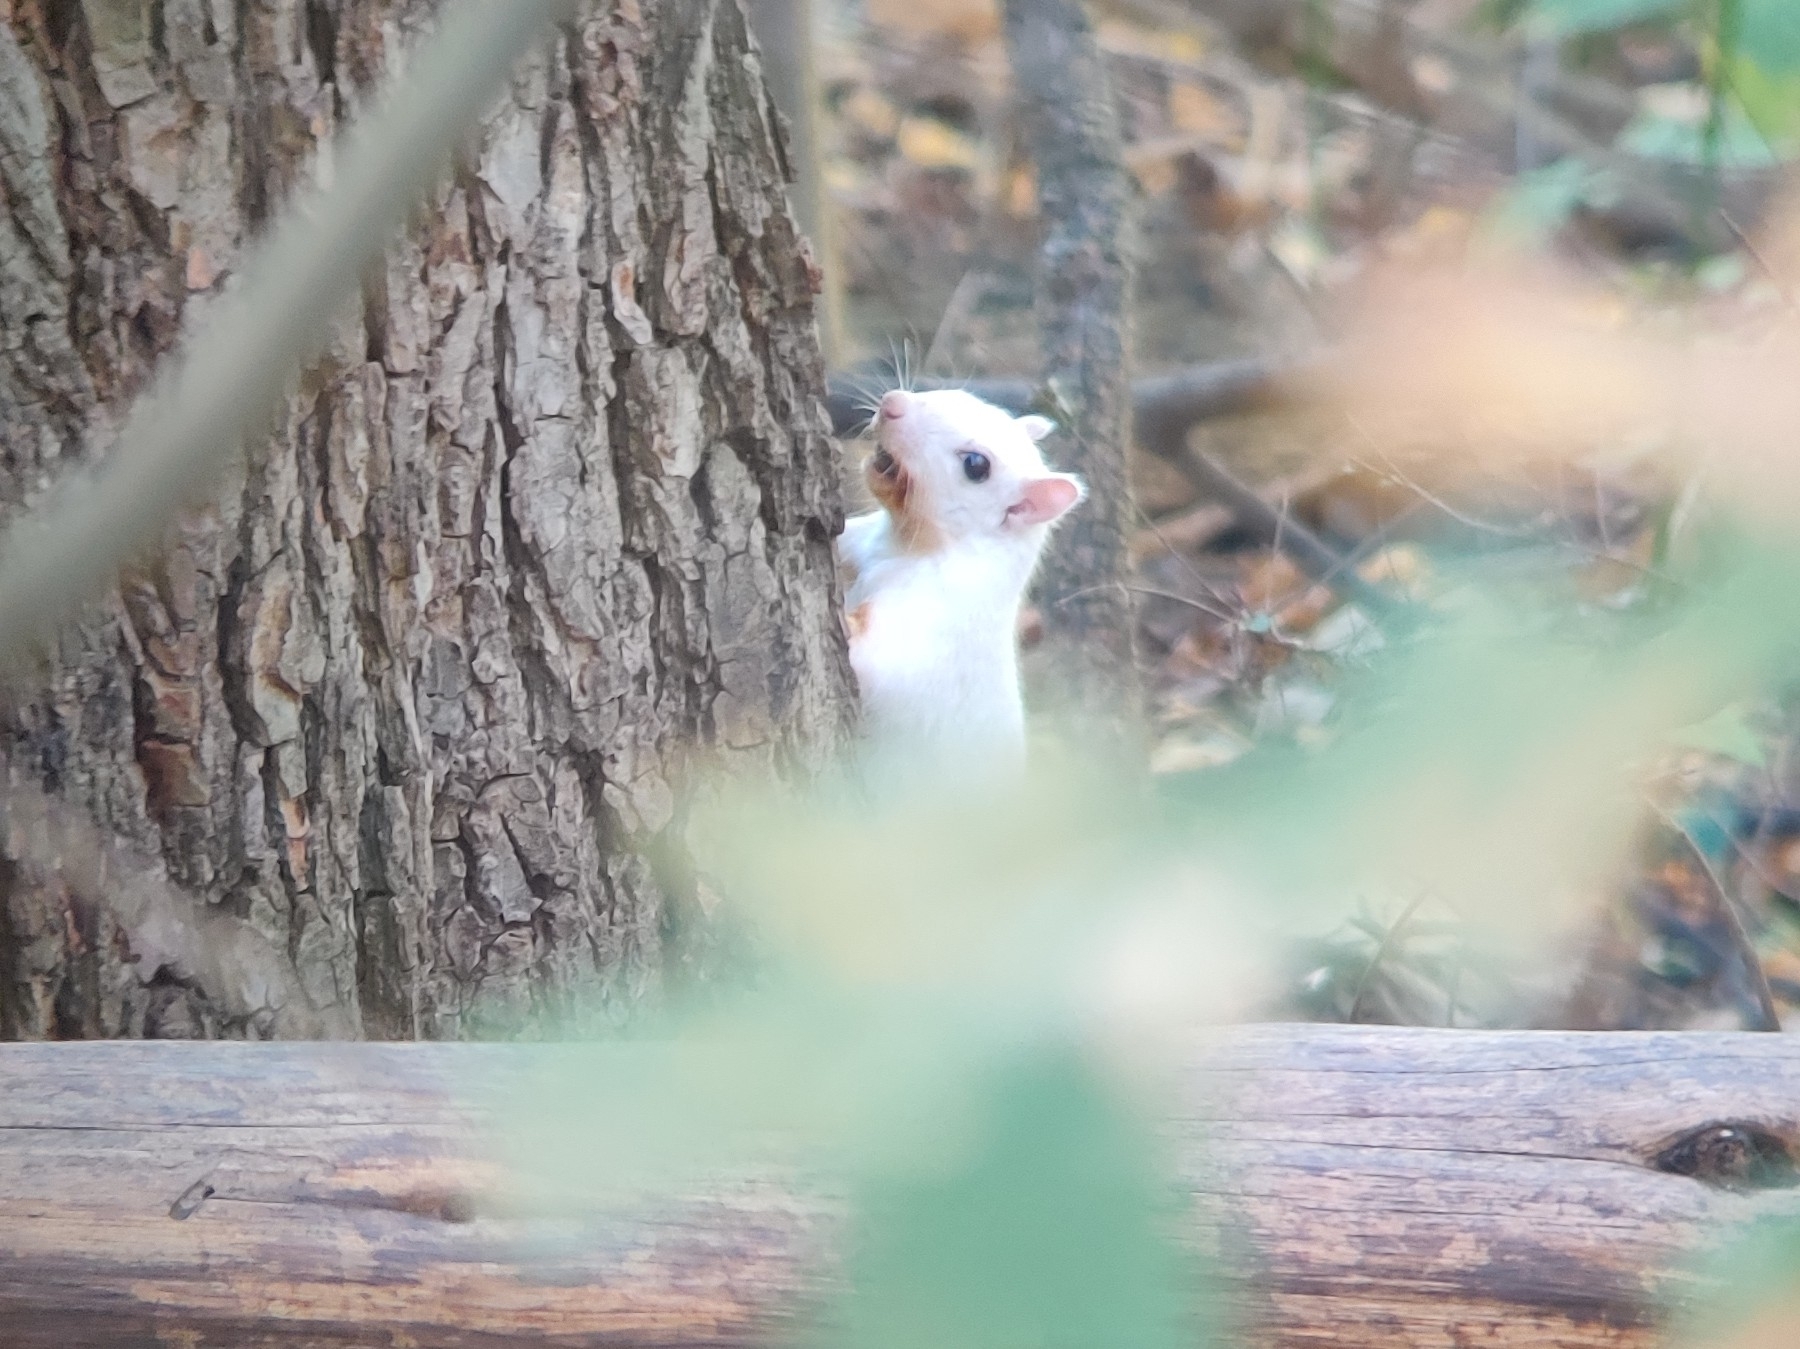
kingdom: Animalia
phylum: Chordata
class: Mammalia
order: Rodentia
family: Sciuridae
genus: Sciurus
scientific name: Sciurus carolinensis
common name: Eastern gray squirrel
